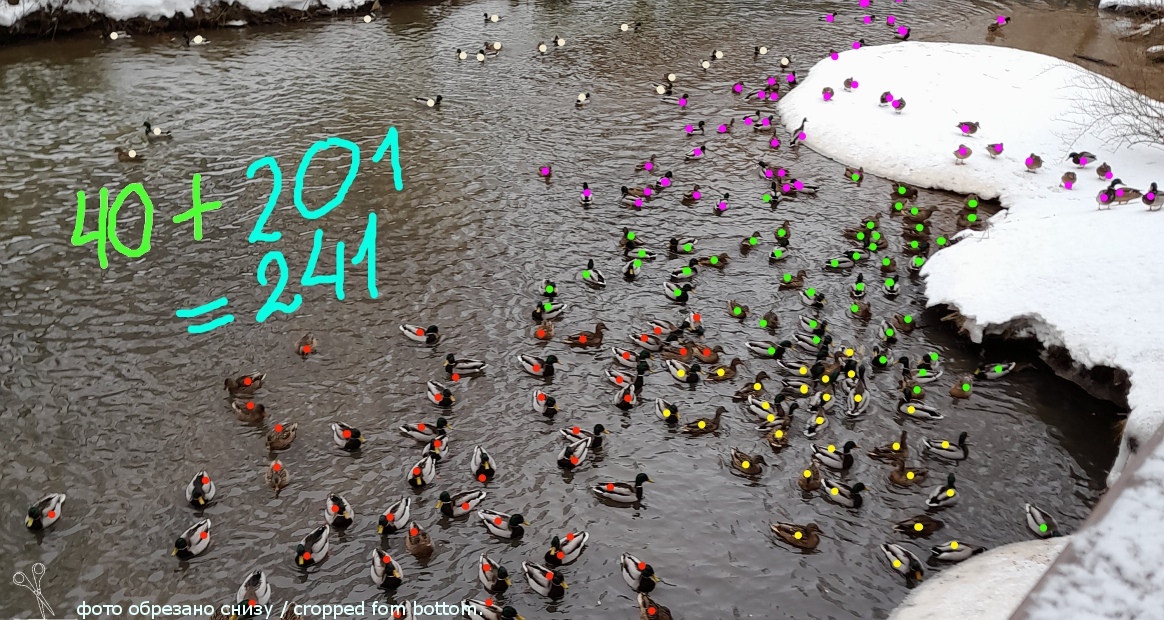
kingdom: Animalia
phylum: Chordata
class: Aves
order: Anseriformes
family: Anatidae
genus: Anas
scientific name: Anas platyrhynchos
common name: Mallard
